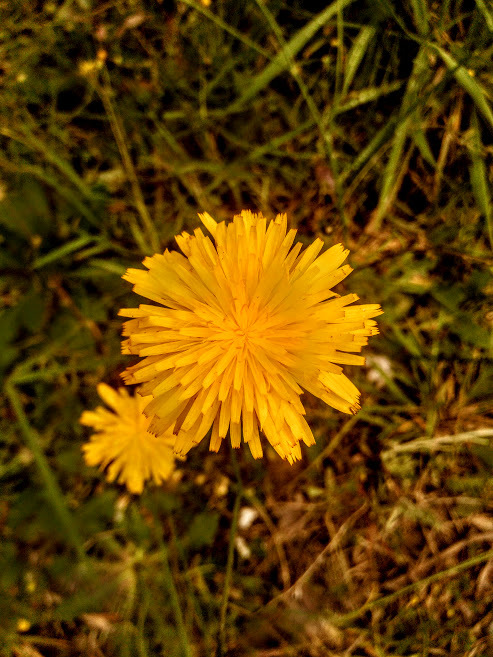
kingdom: Plantae
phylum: Tracheophyta
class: Magnoliopsida
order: Asterales
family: Asteraceae
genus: Hypochaeris
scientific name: Hypochaeris radicata
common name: Flatweed
